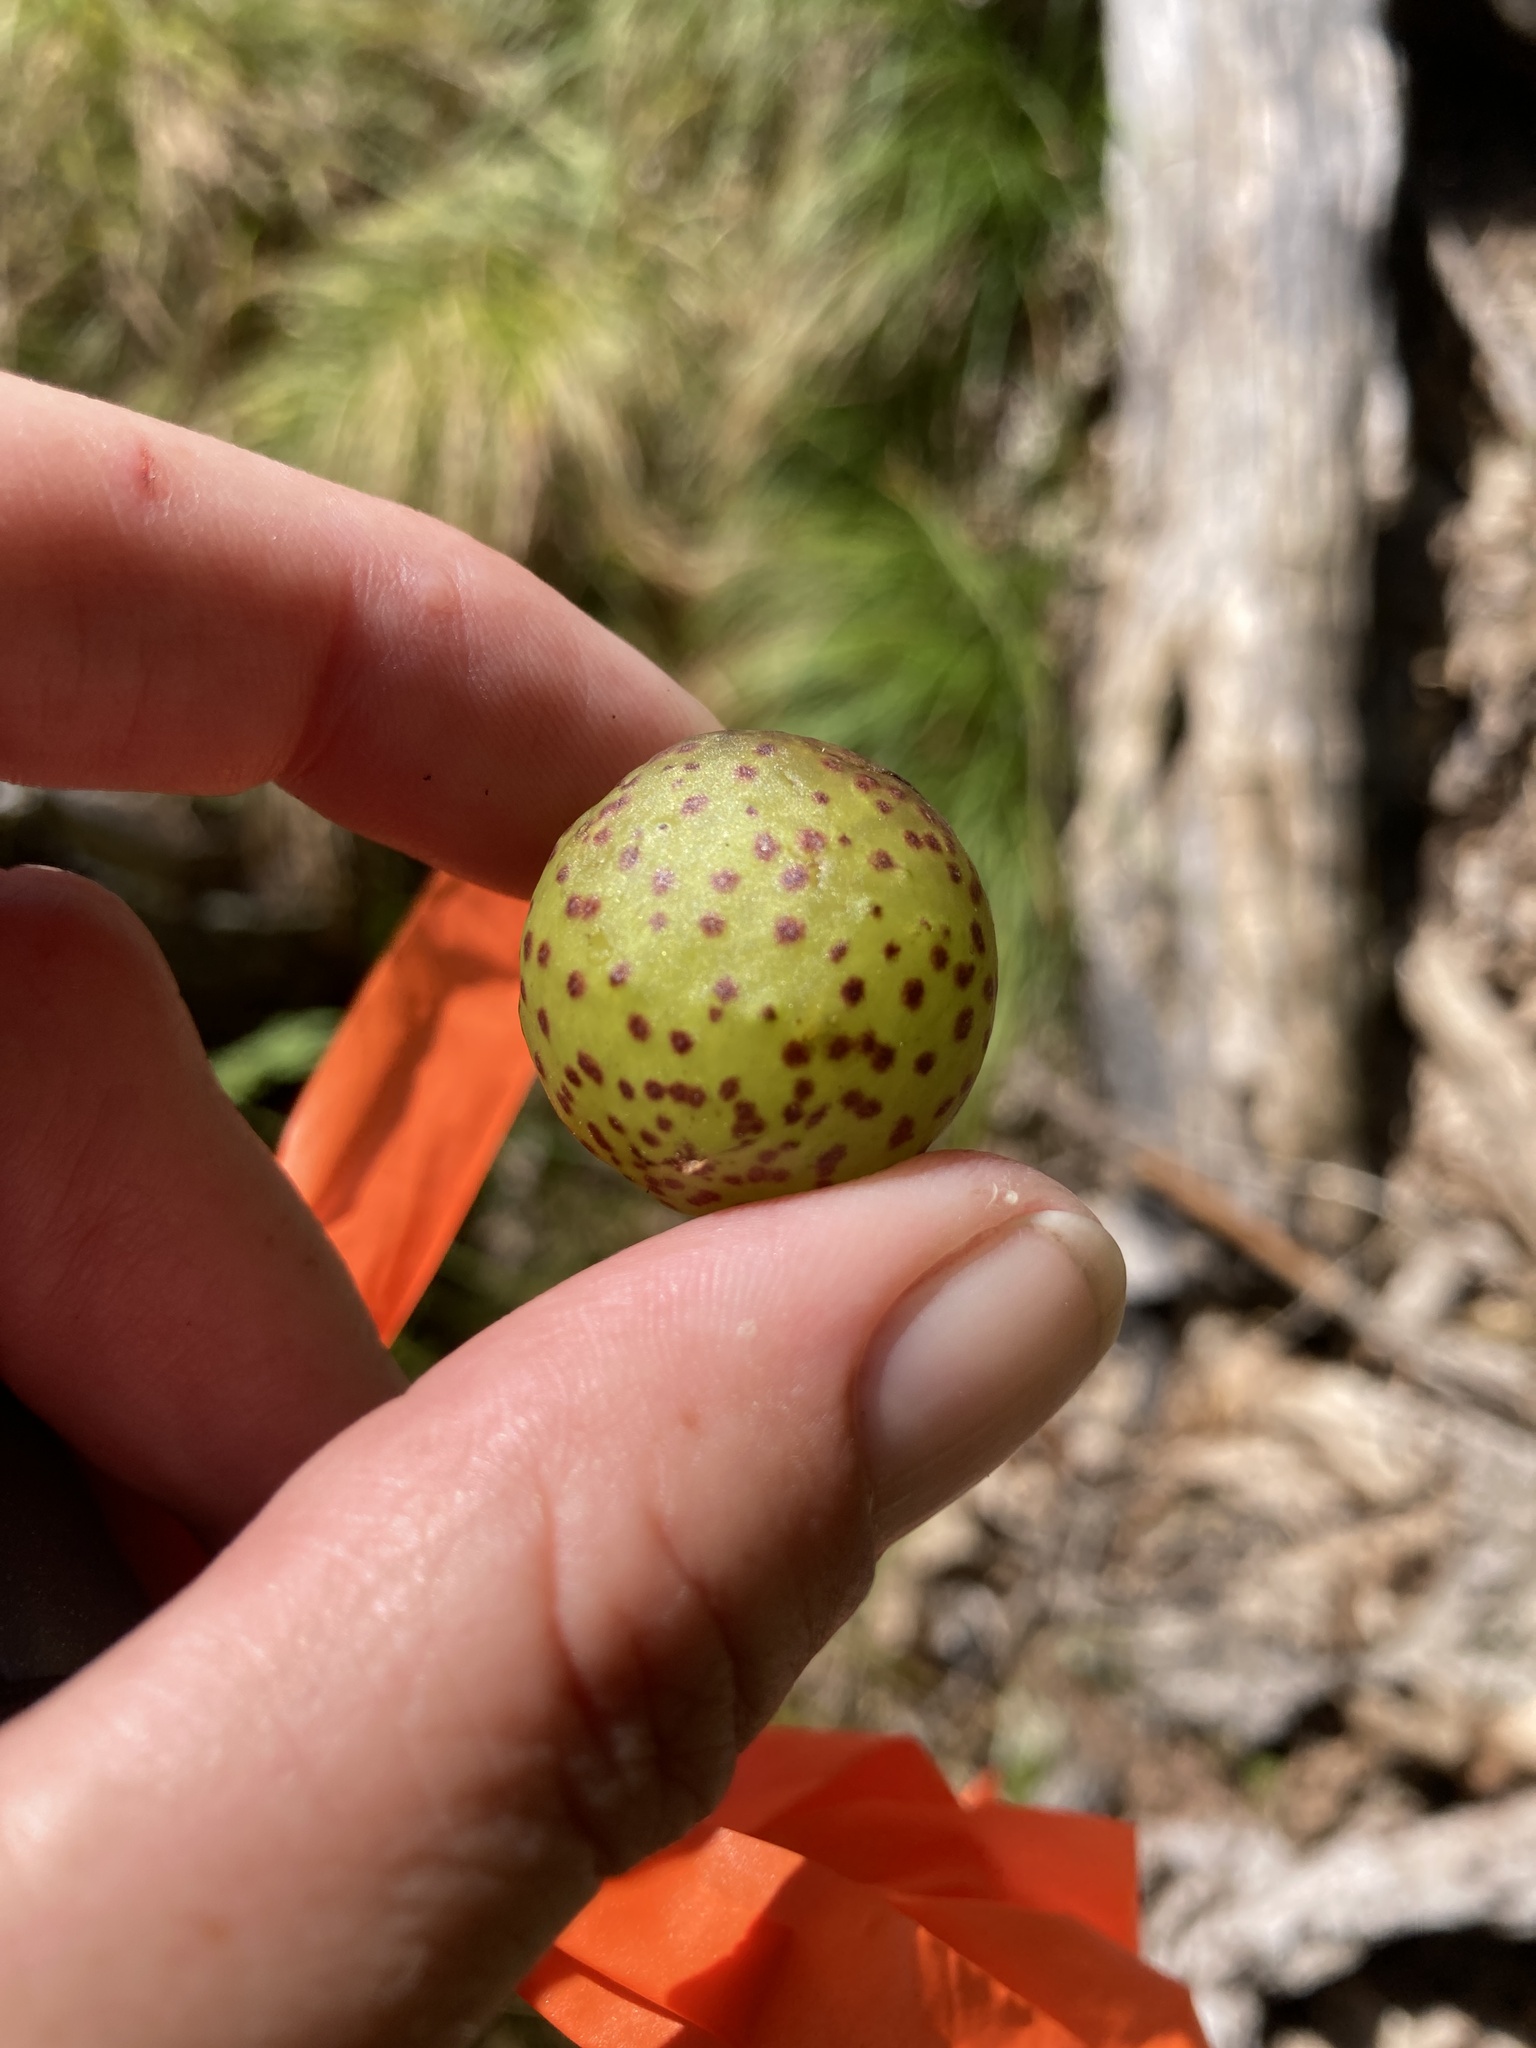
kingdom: Animalia
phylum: Arthropoda
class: Insecta
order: Hymenoptera
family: Cynipidae
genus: Amphibolips
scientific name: Amphibolips
